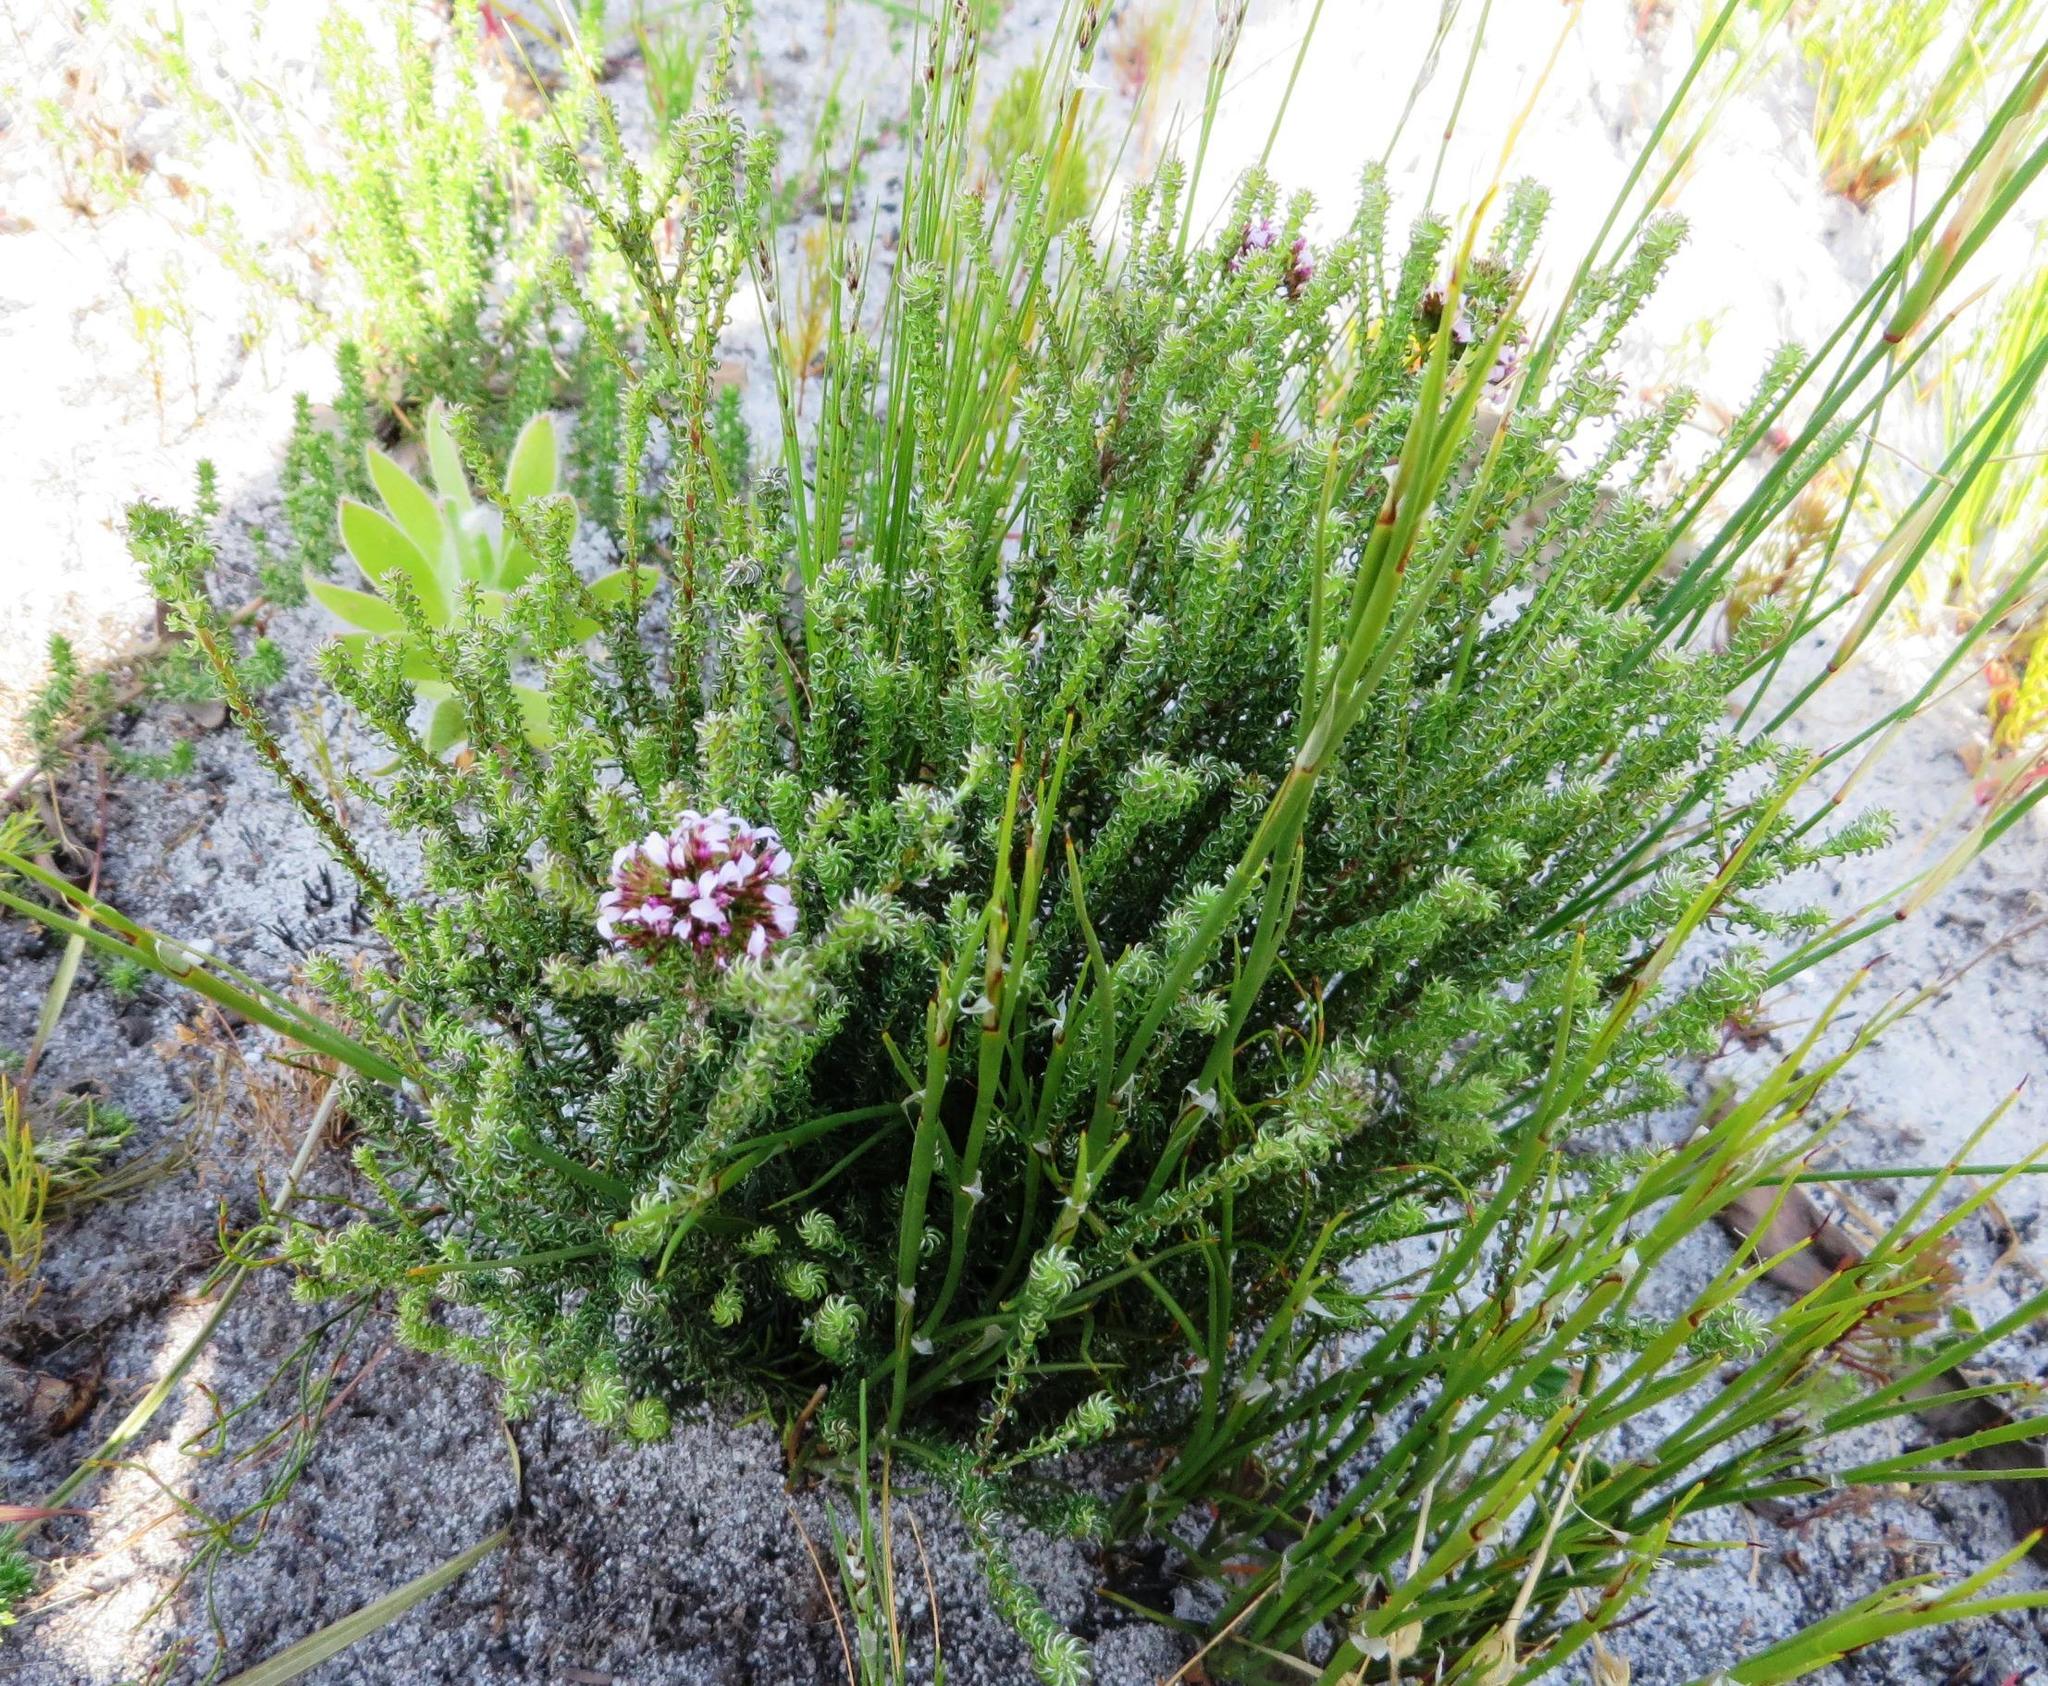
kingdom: Plantae
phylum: Tracheophyta
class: Magnoliopsida
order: Asterales
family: Asteraceae
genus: Disparago
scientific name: Disparago ericoides
